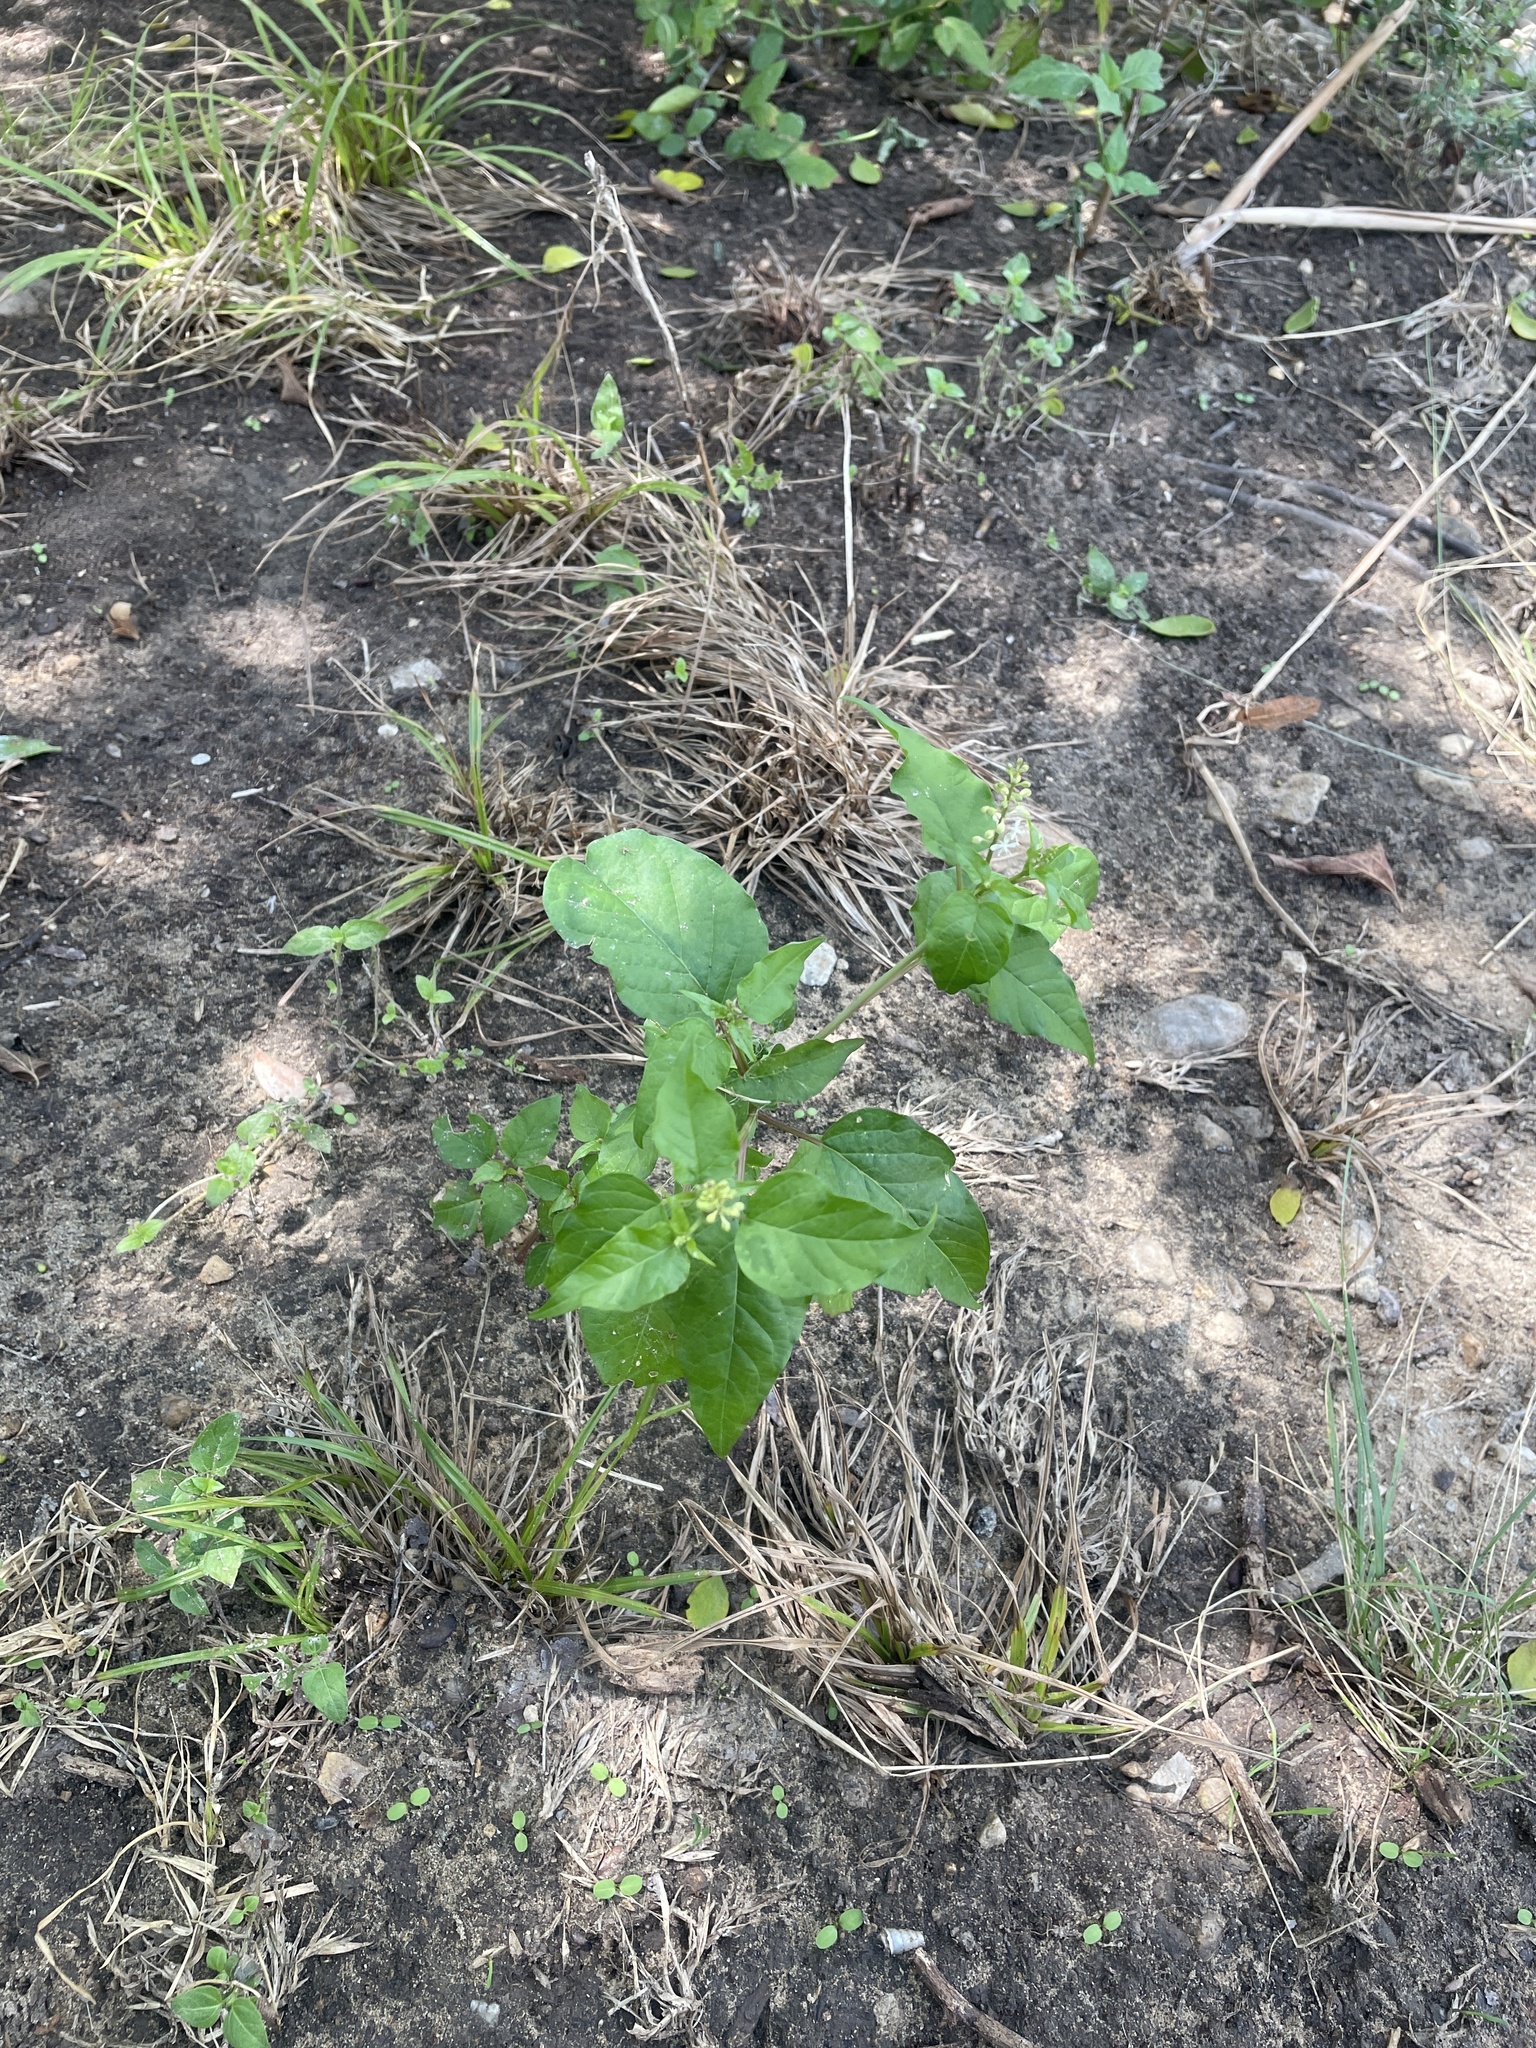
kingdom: Plantae
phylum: Tracheophyta
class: Magnoliopsida
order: Caryophyllales
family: Phytolaccaceae
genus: Rivina
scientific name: Rivina humilis
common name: Rougeplant
